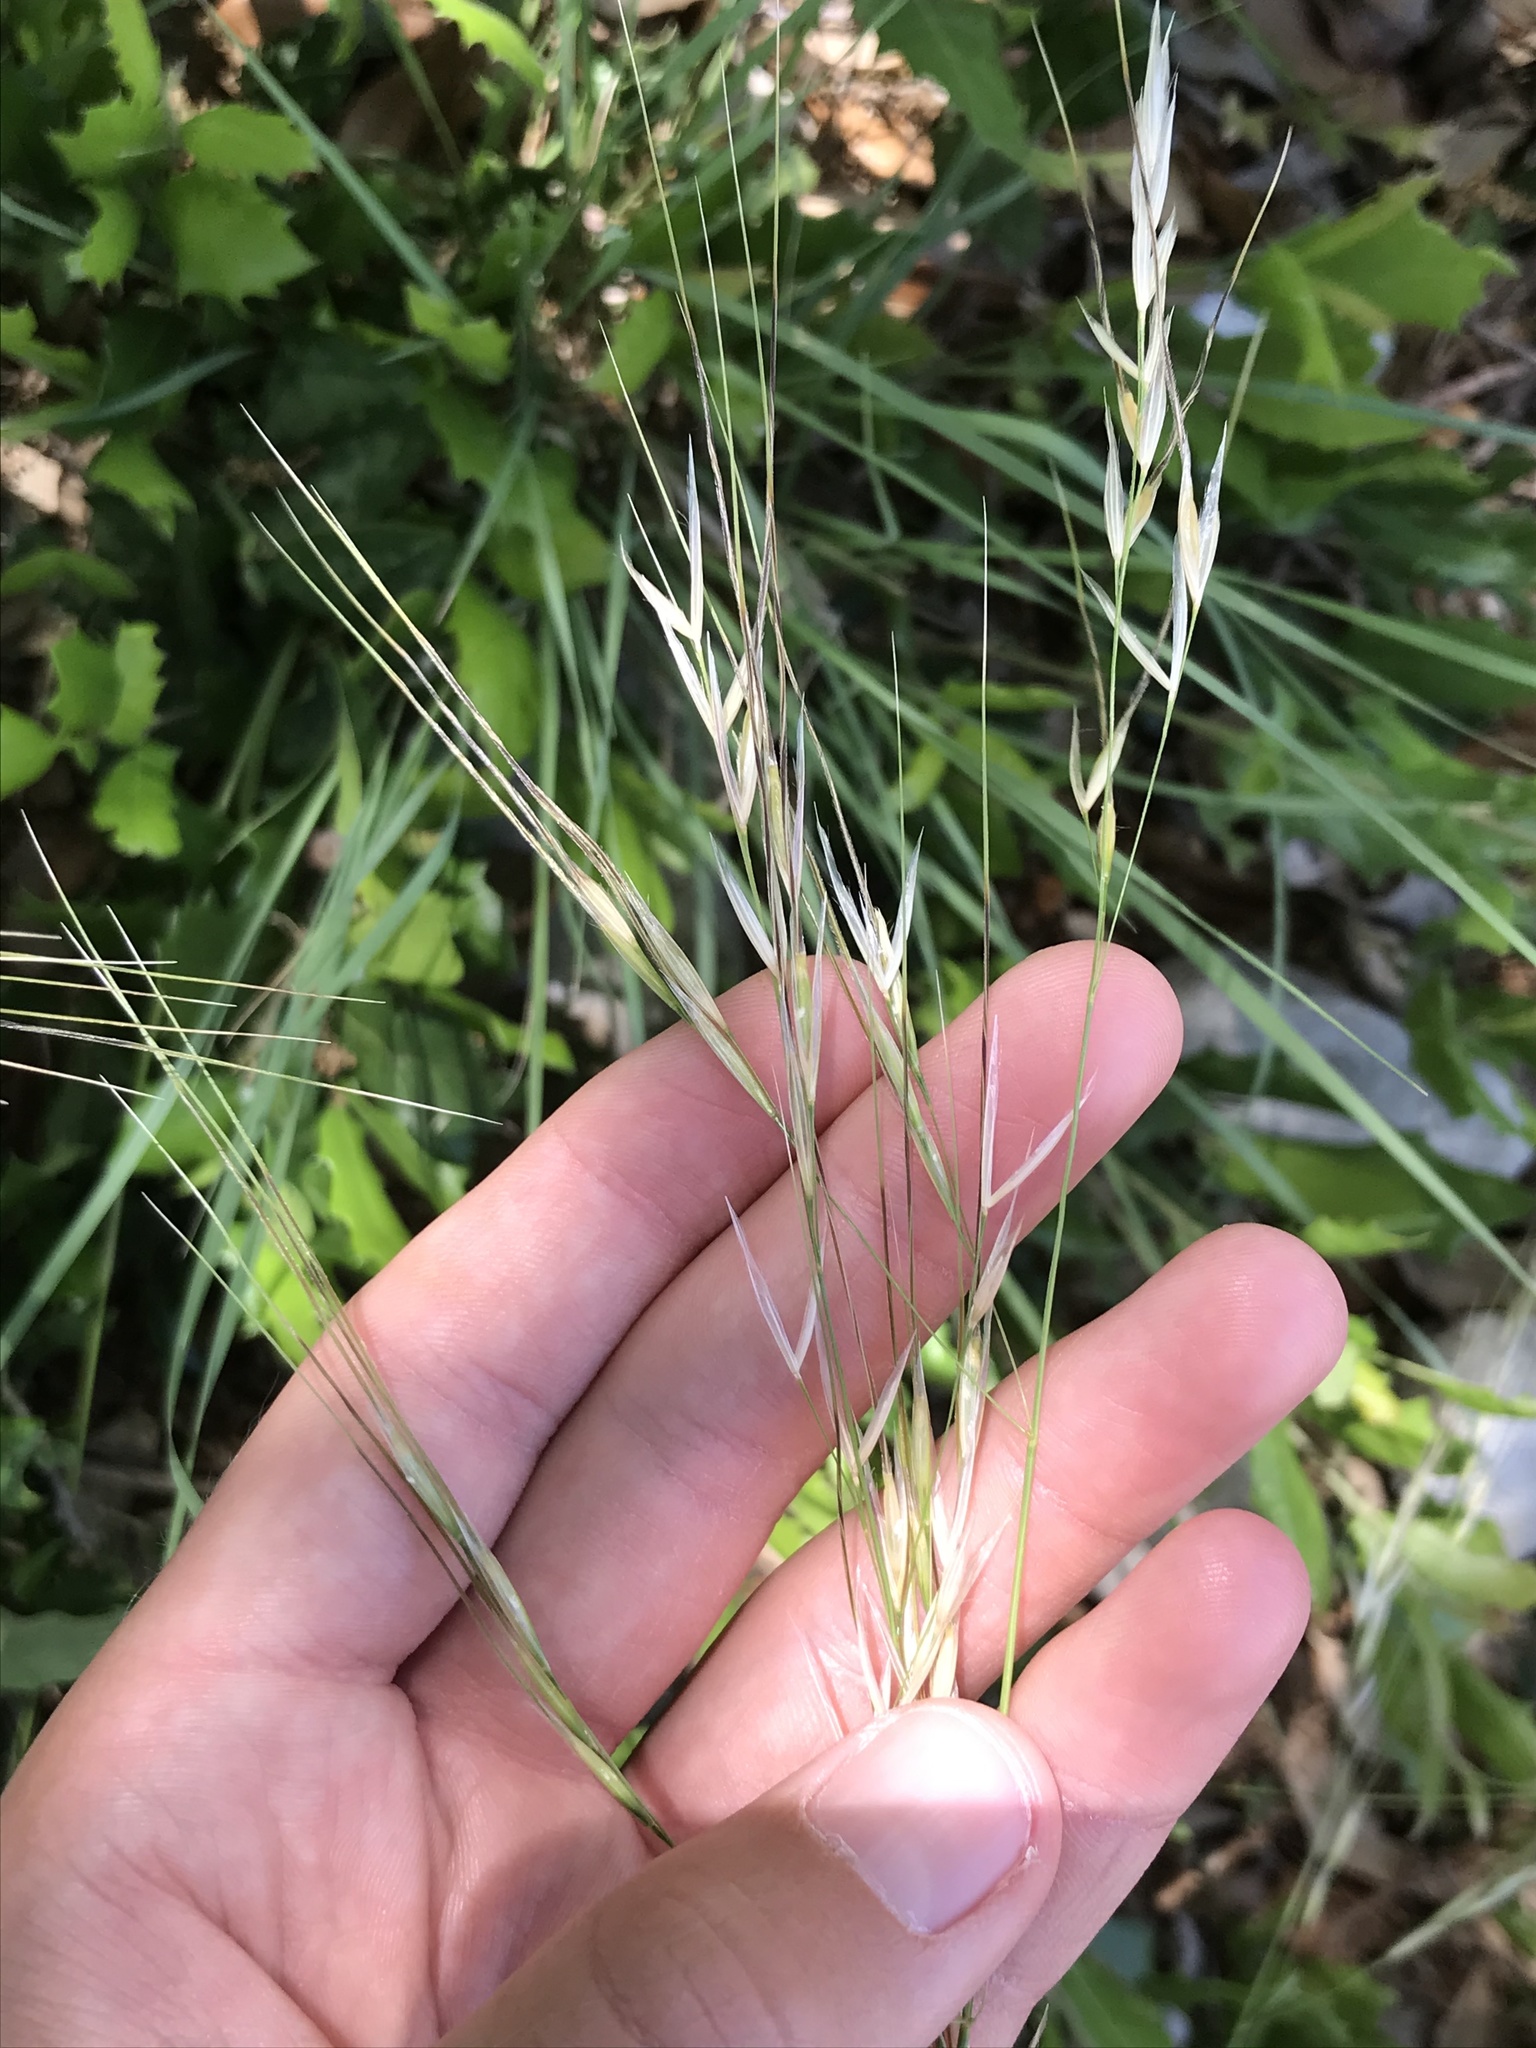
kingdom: Plantae
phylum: Tracheophyta
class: Liliopsida
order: Poales
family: Poaceae
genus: Nassella
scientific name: Nassella leucotricha
